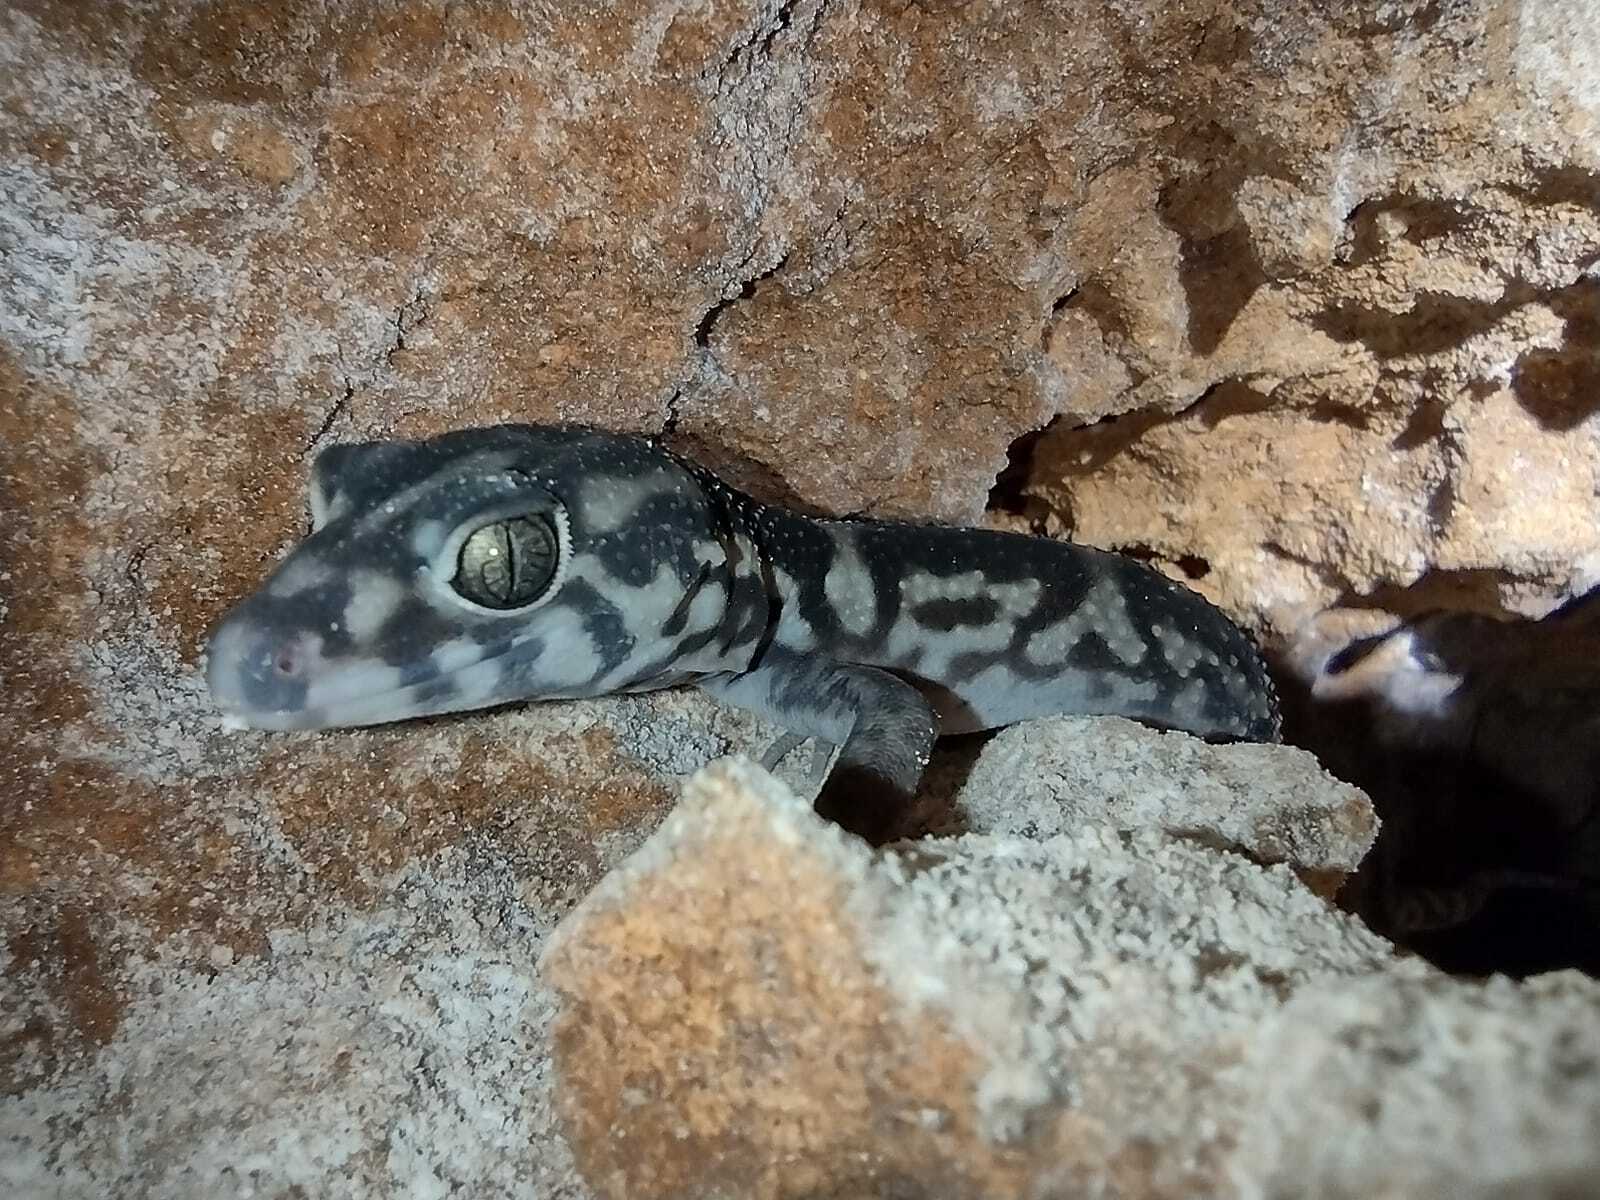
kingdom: Animalia
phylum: Chordata
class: Squamata
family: Eublepharidae
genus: Coleonyx
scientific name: Coleonyx elegans
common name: Yucatan banded gecko
